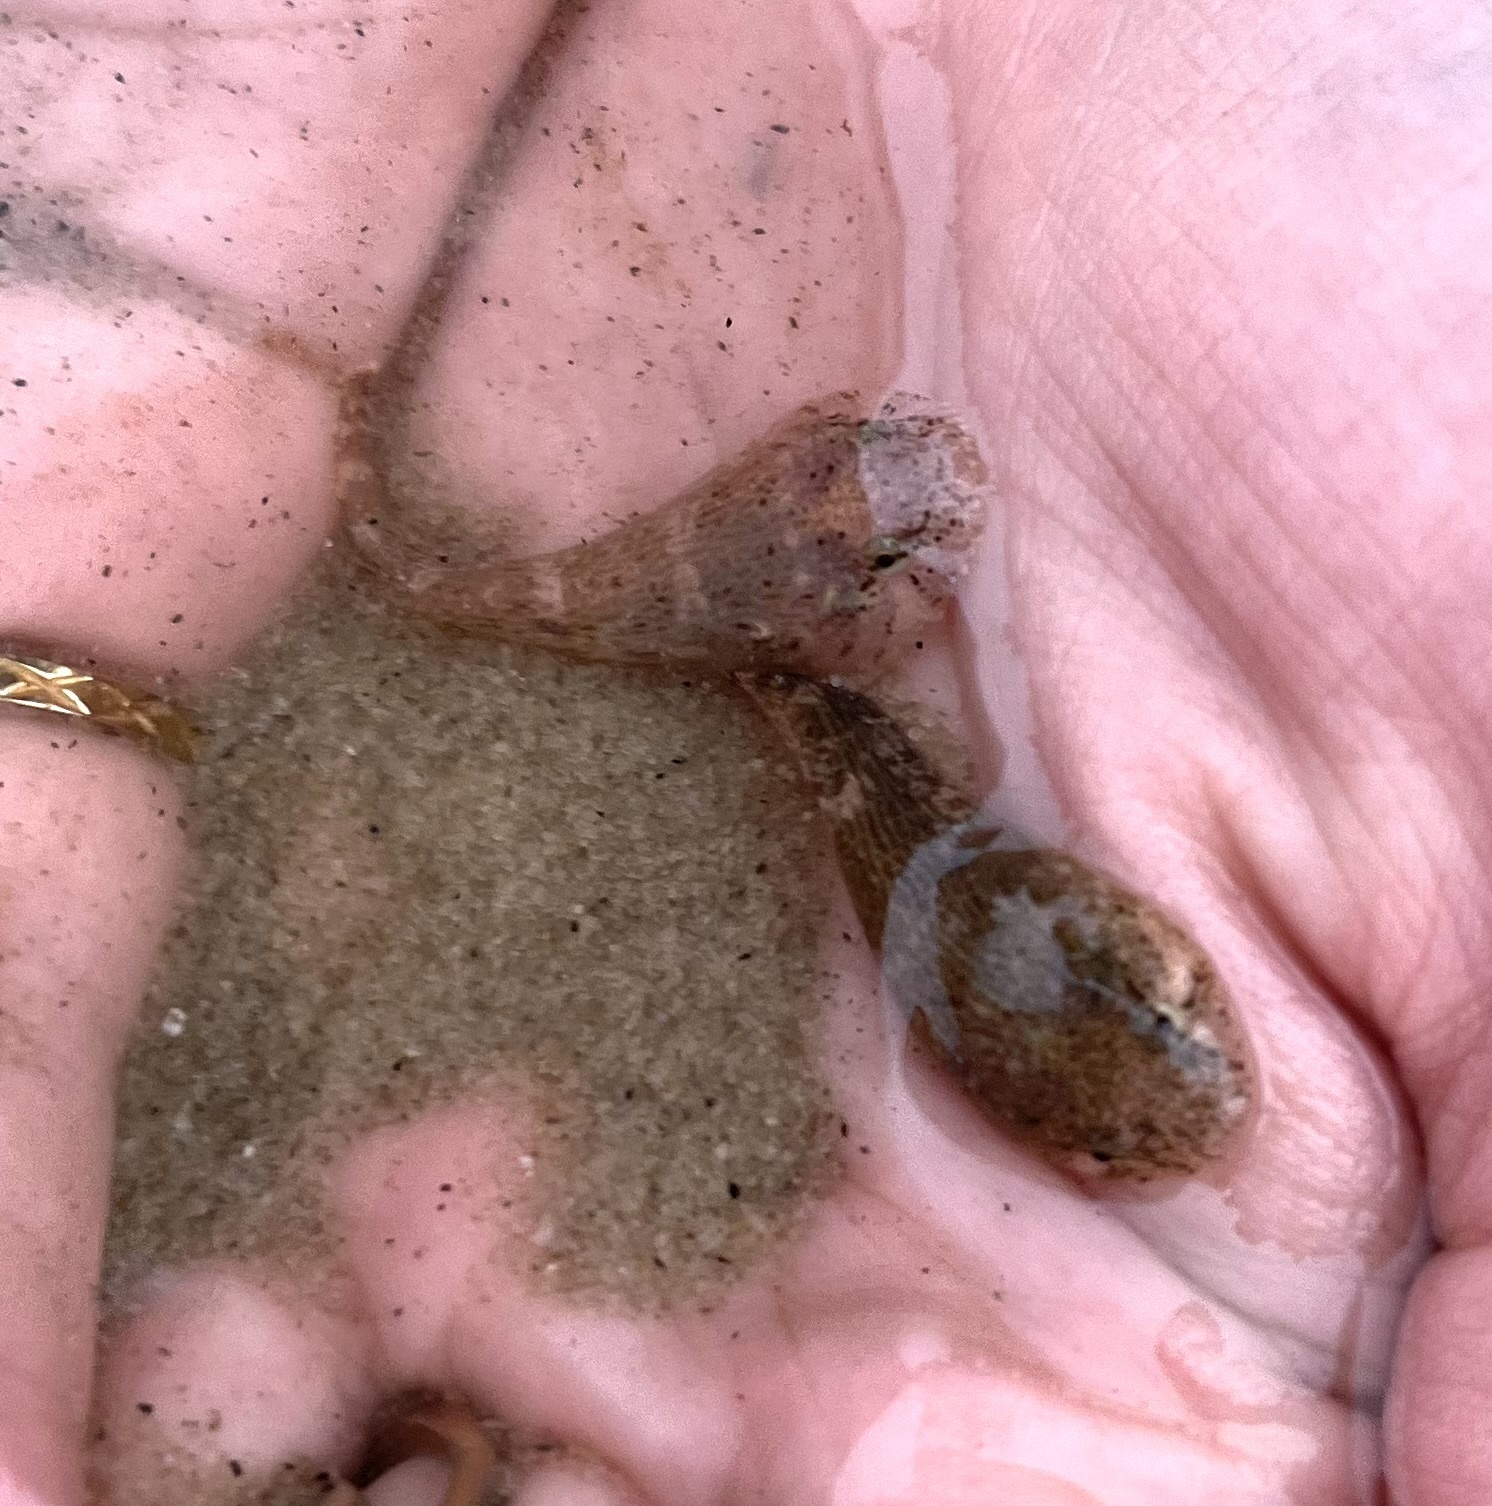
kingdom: Animalia
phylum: Chordata
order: Gobiesociformes
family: Gobiesocidae
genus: Gobiesox
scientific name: Gobiesox strumosus
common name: Skilletfish
